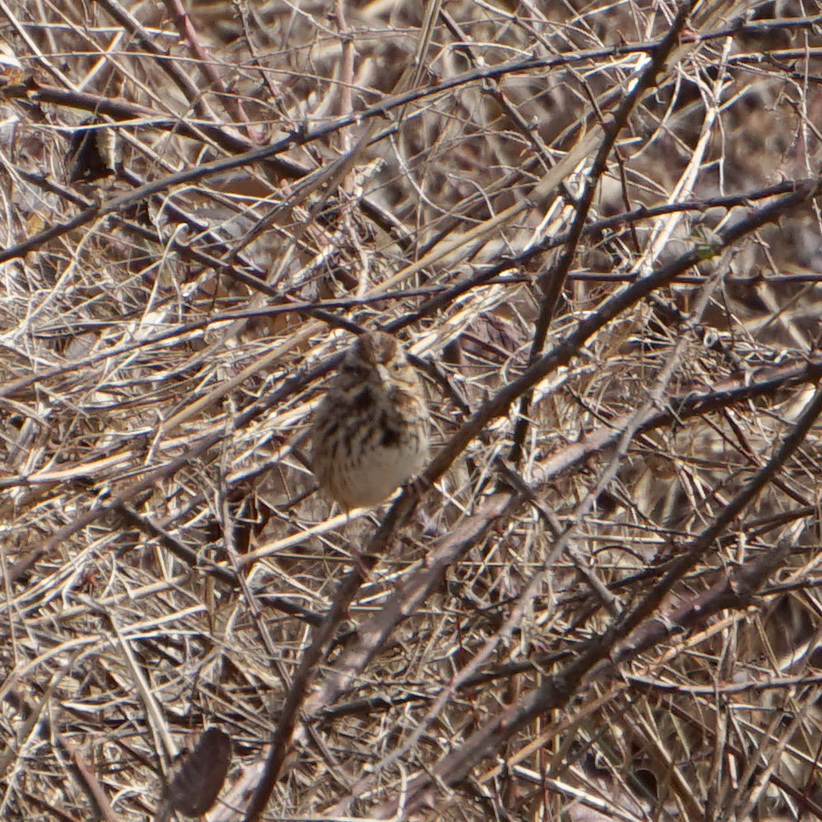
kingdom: Animalia
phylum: Chordata
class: Aves
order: Passeriformes
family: Passerellidae
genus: Melospiza
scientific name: Melospiza melodia
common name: Song sparrow
